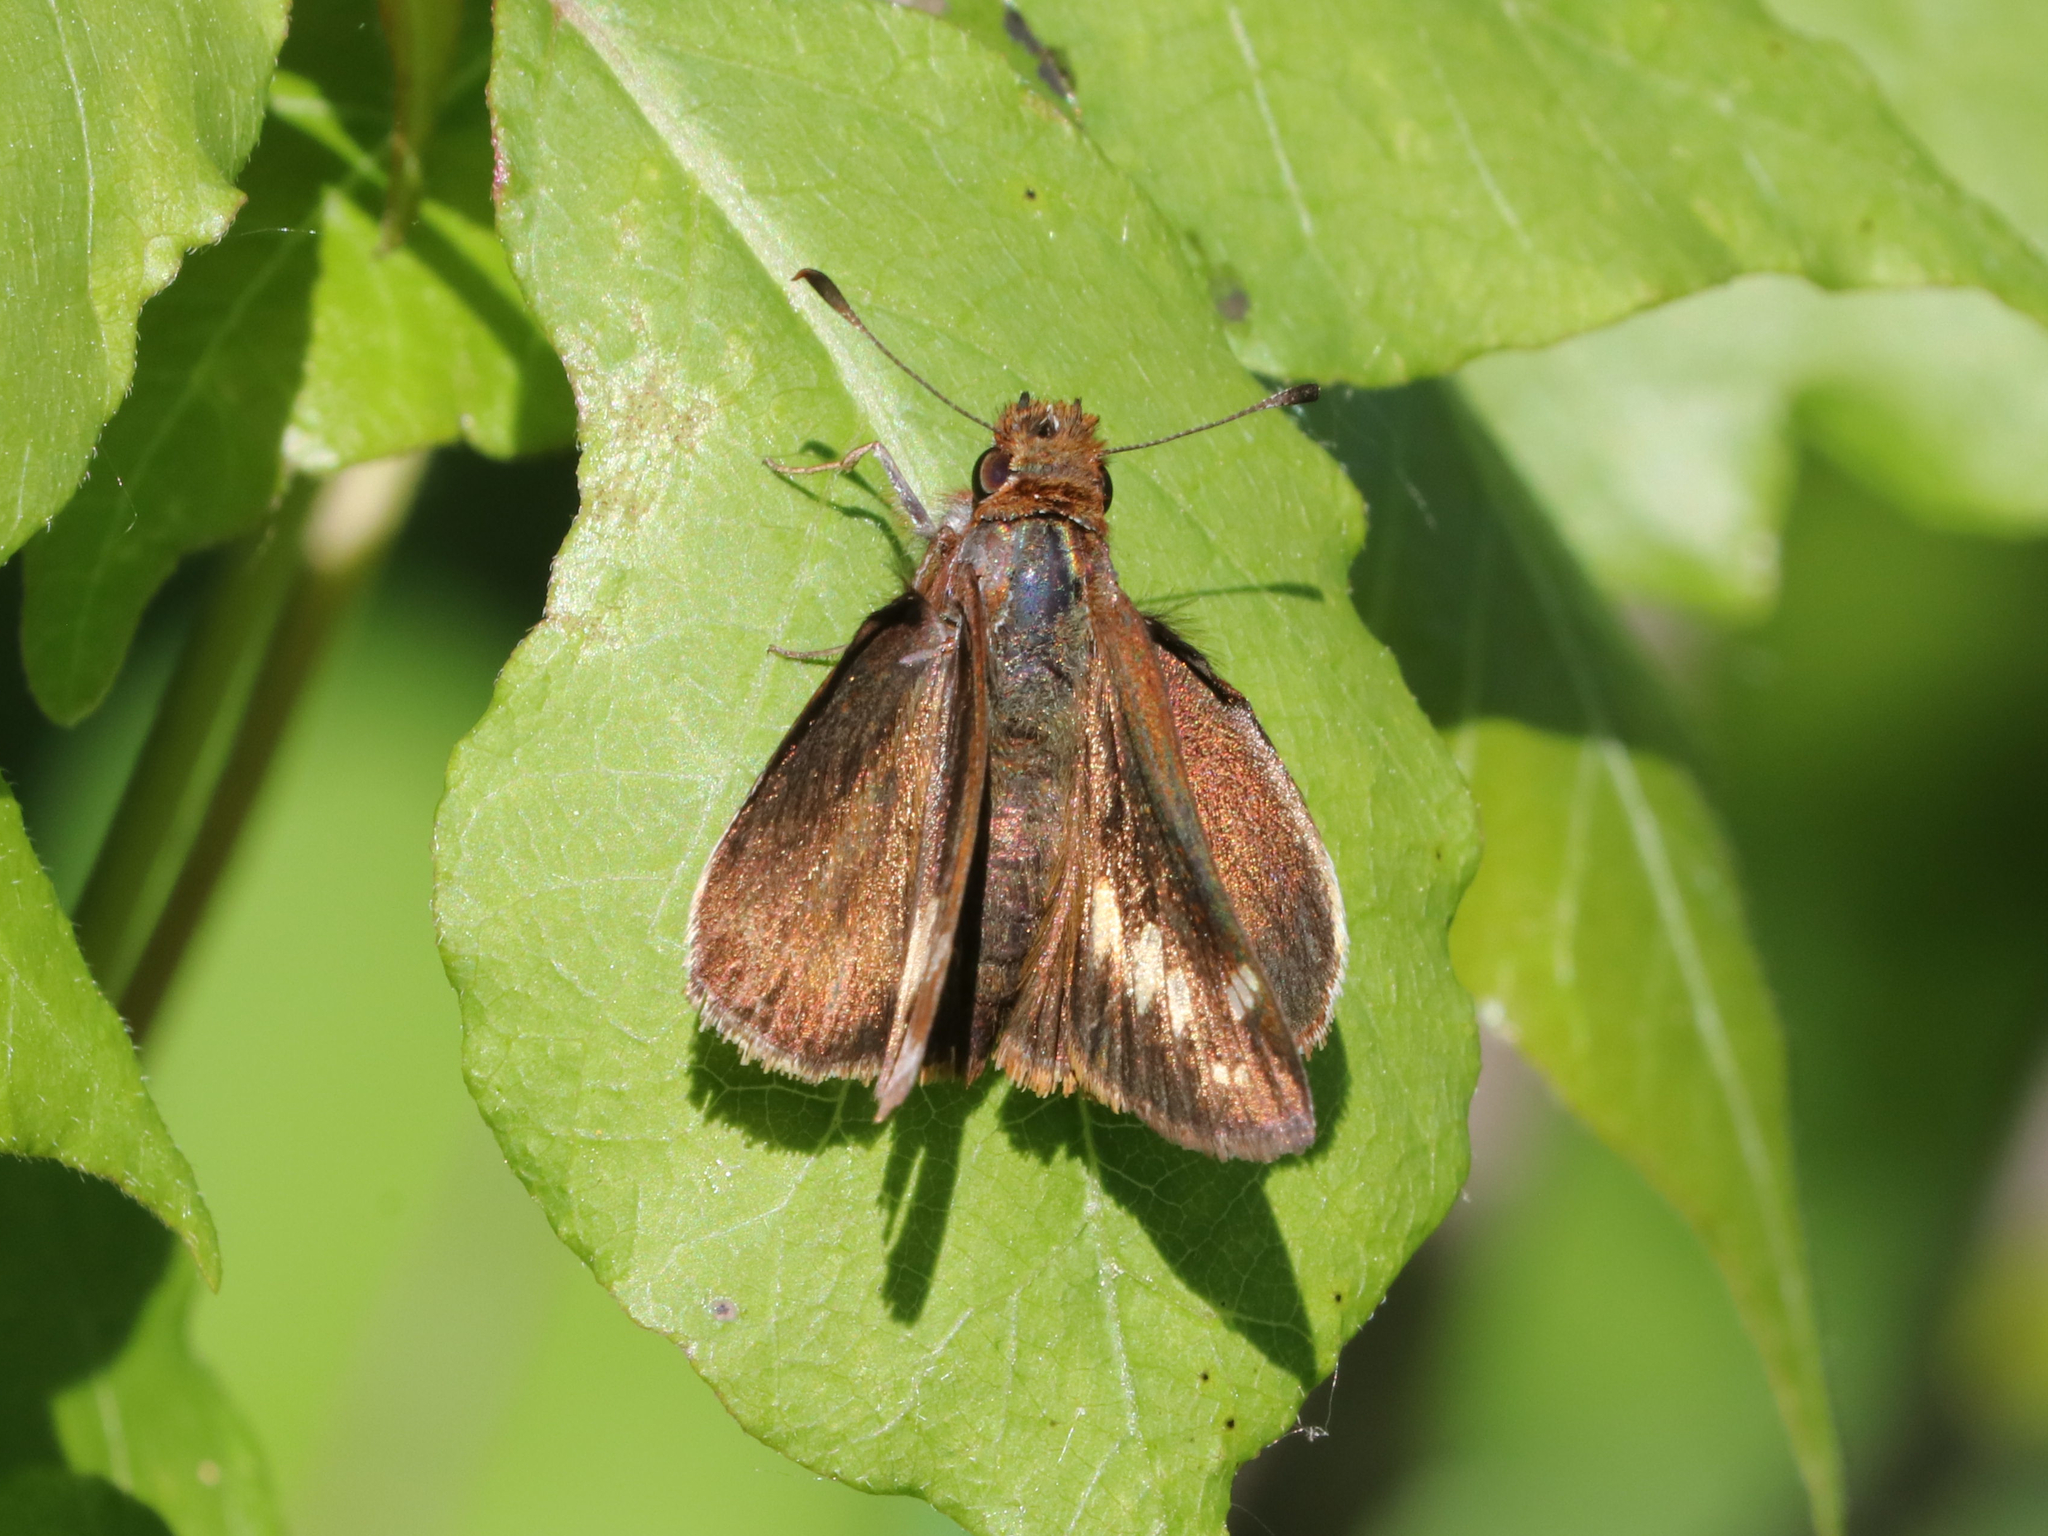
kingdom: Animalia
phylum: Arthropoda
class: Insecta
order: Lepidoptera
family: Hesperiidae
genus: Lon
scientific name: Lon zabulon
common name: Zabulon skipper
